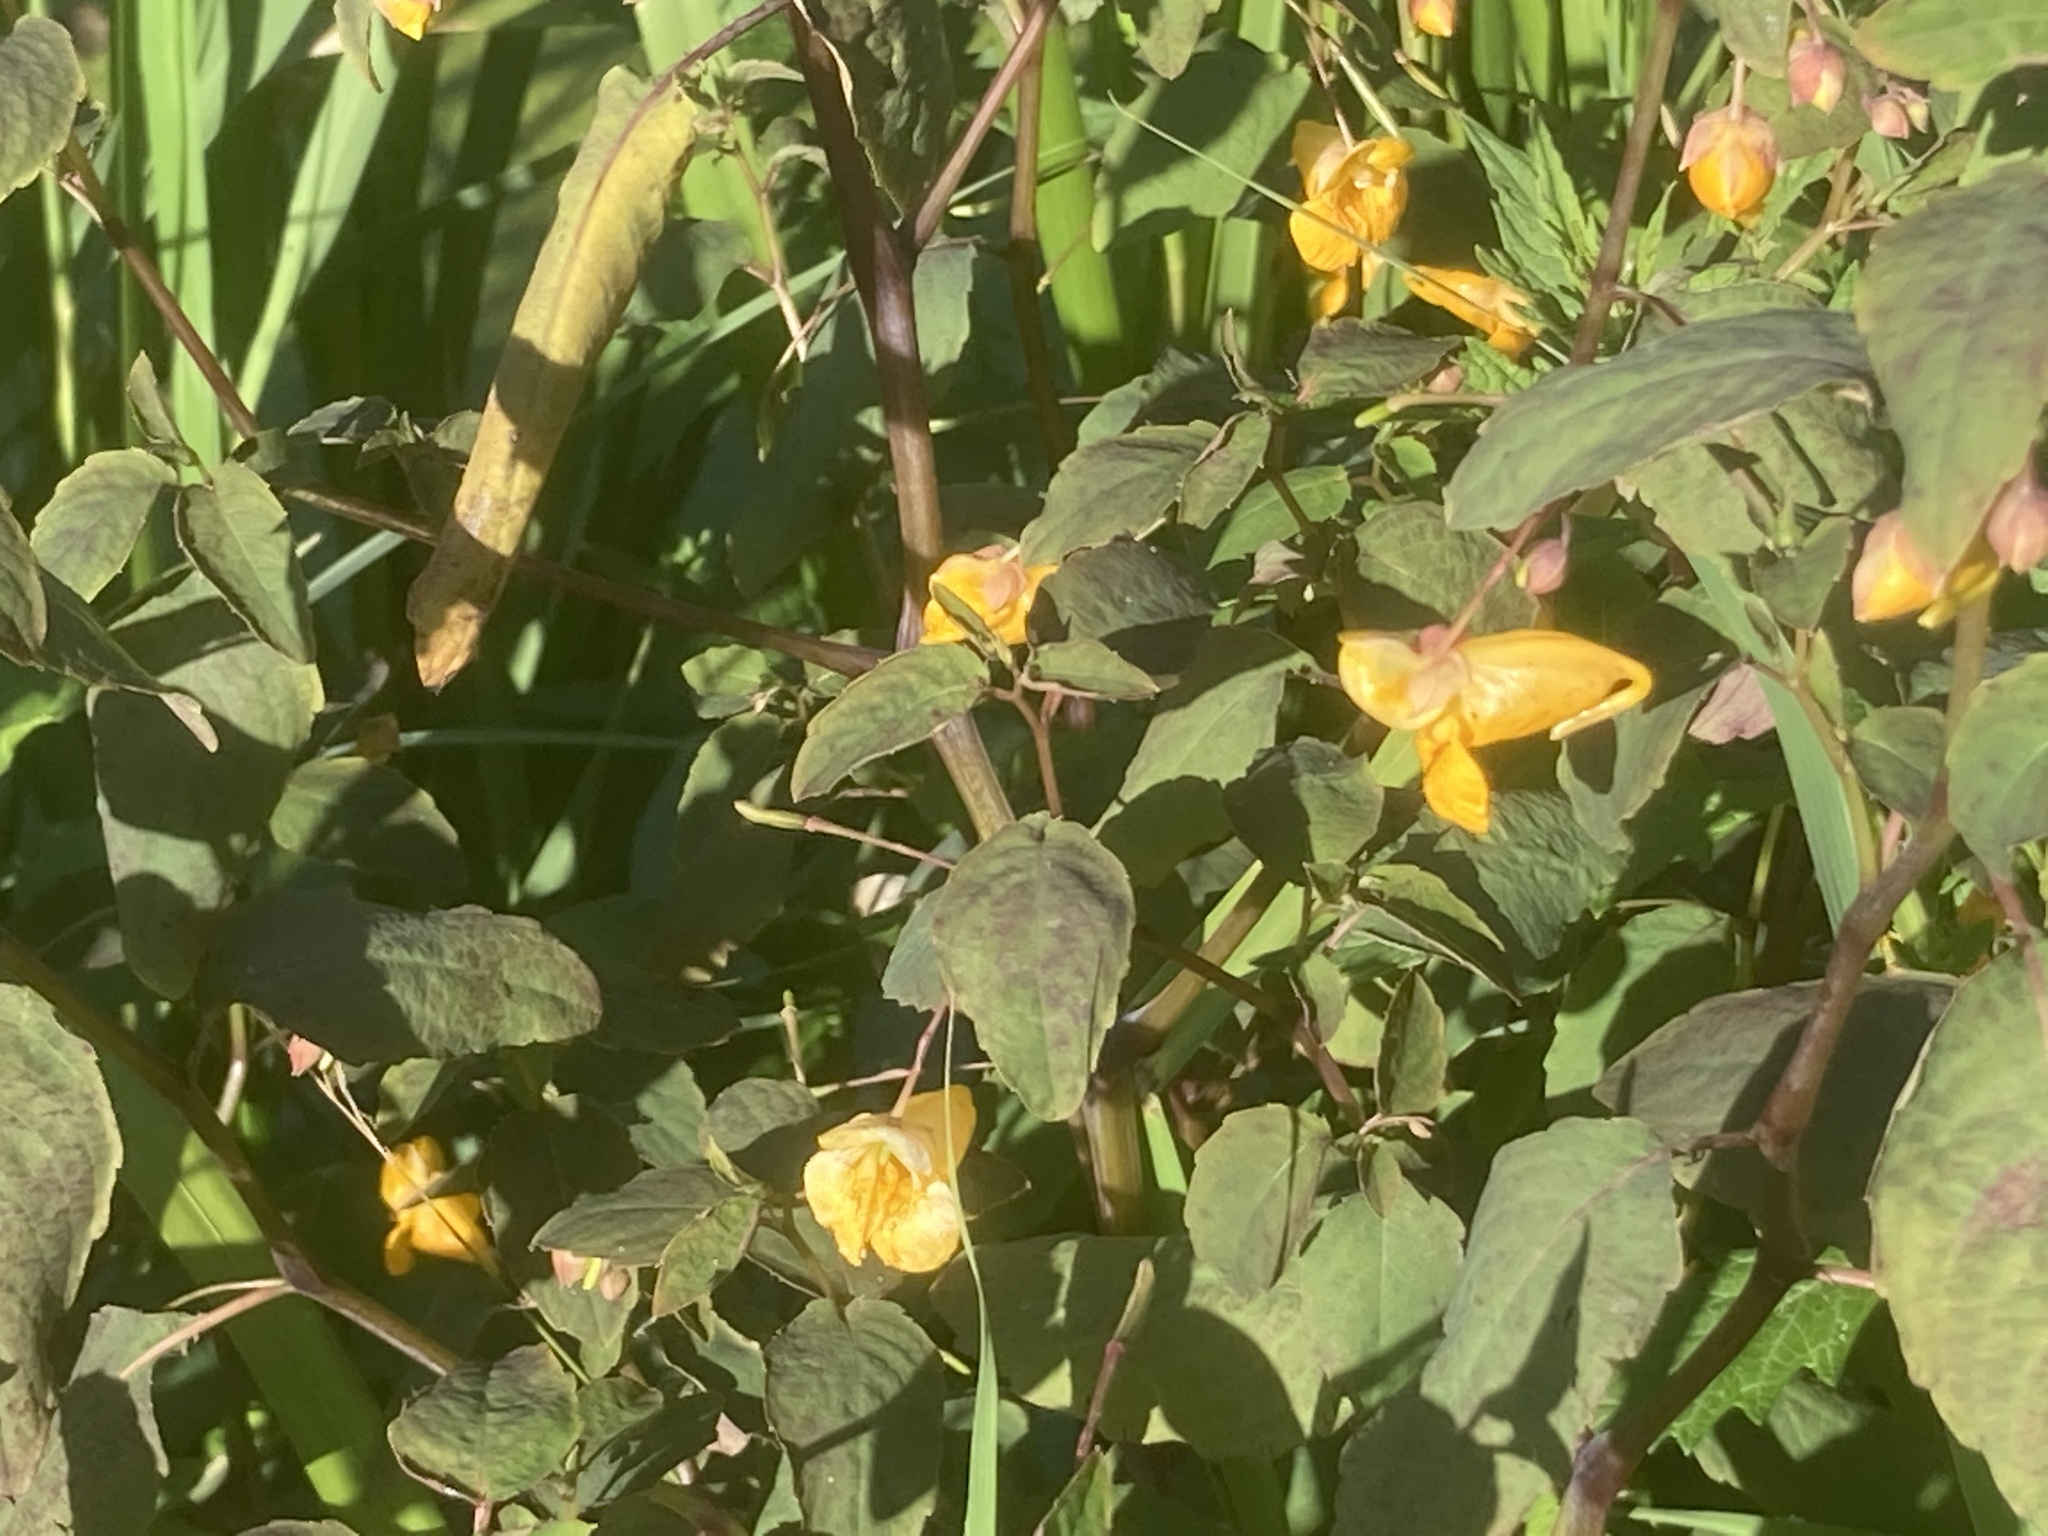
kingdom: Plantae
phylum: Tracheophyta
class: Magnoliopsida
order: Ericales
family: Balsaminaceae
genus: Impatiens
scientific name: Impatiens capensis
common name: Orange balsam
